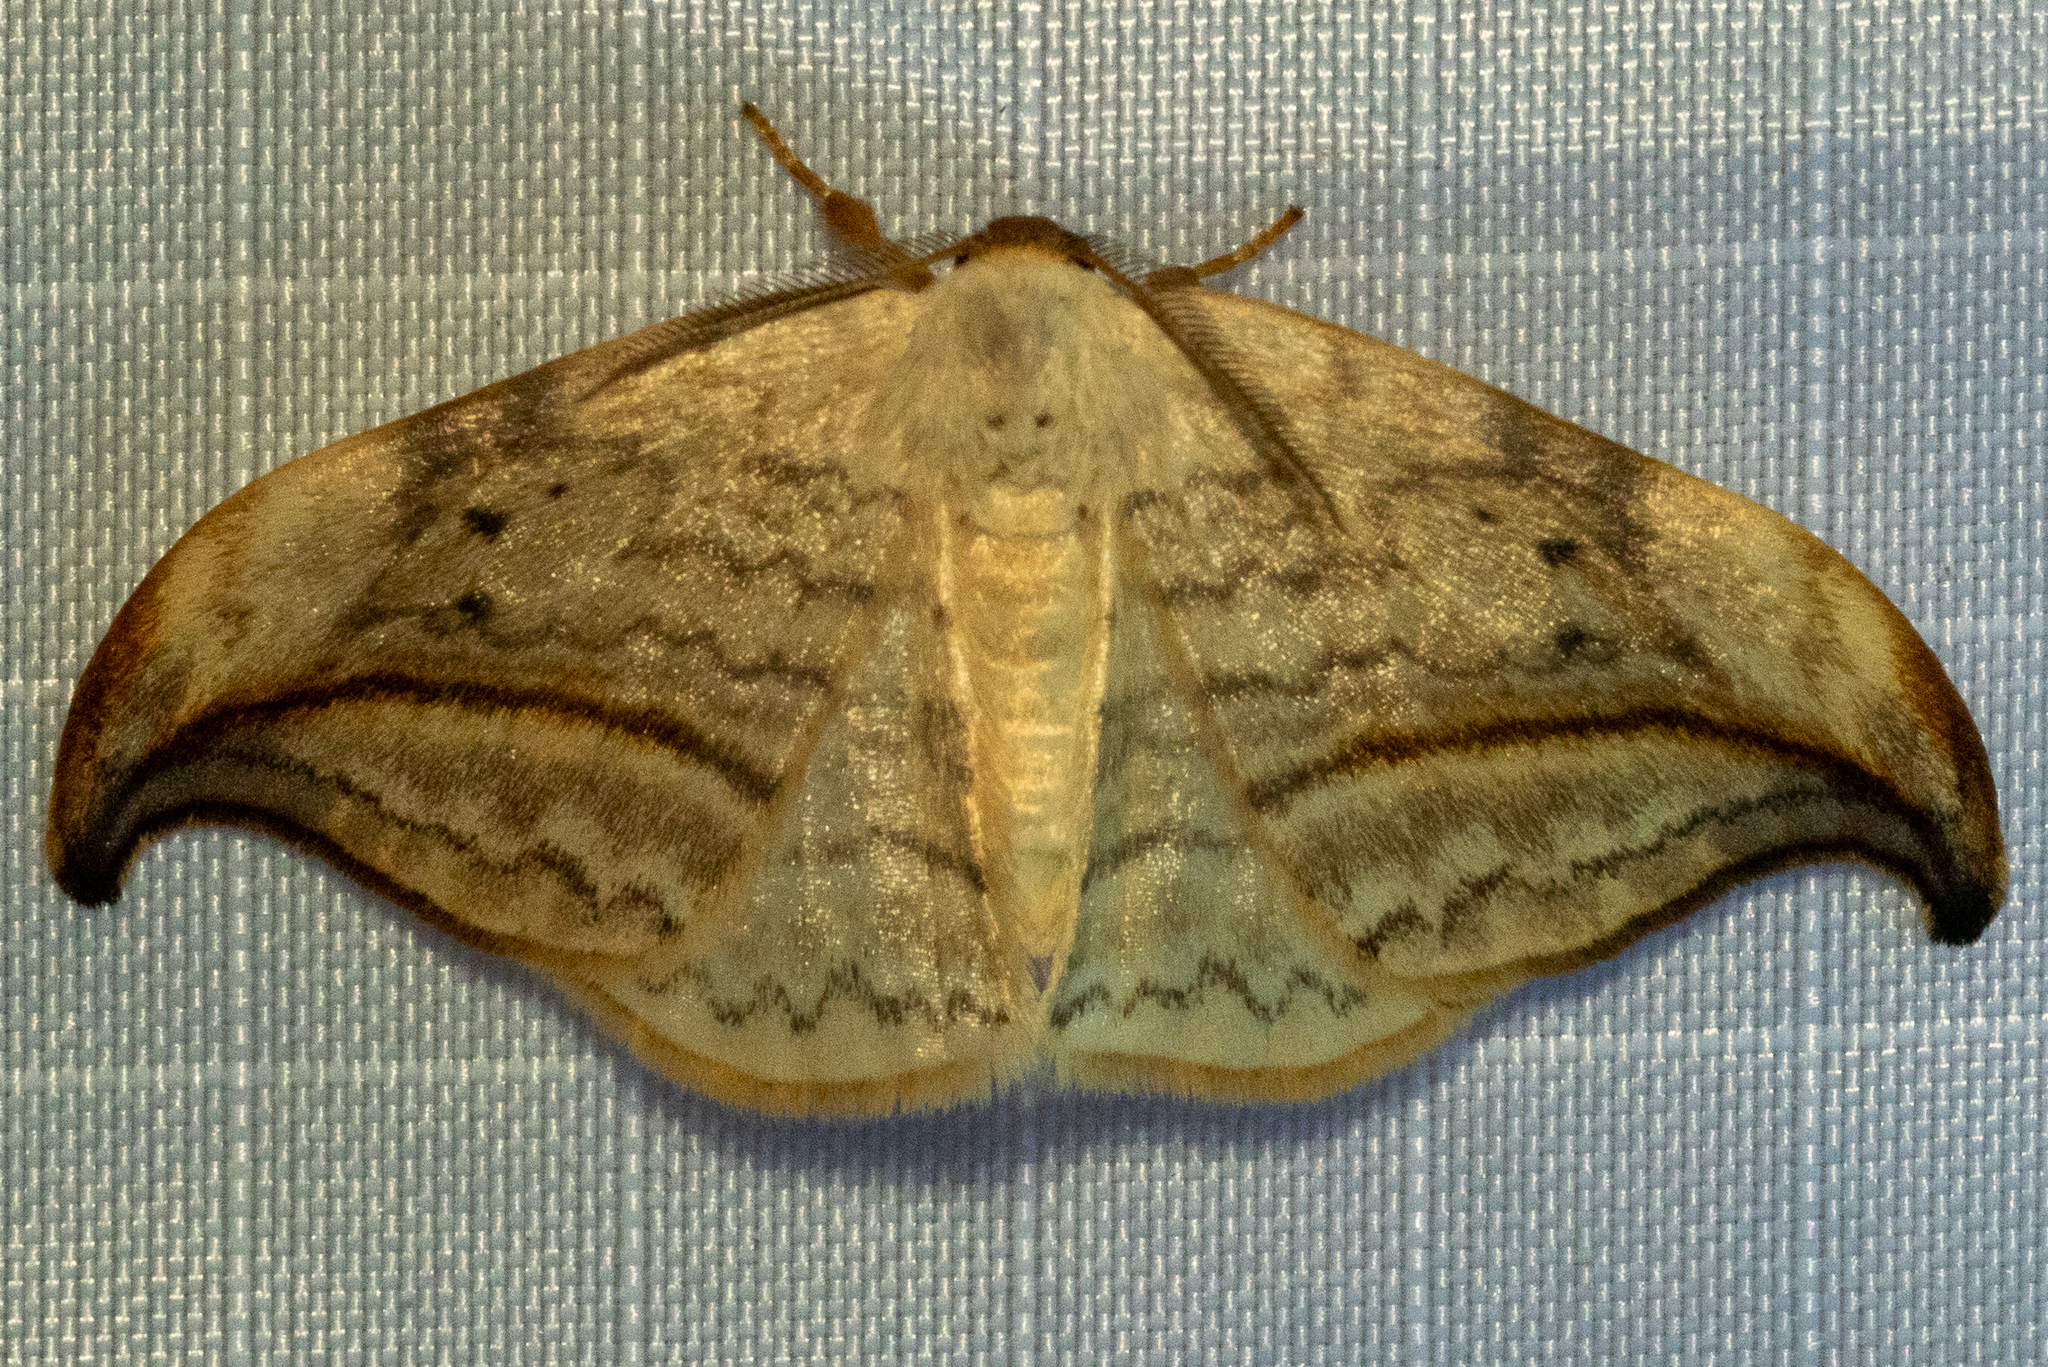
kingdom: Animalia
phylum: Arthropoda
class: Insecta
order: Lepidoptera
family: Drepanidae
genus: Drepana
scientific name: Drepana arcuata
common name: Arched hooktip moth
